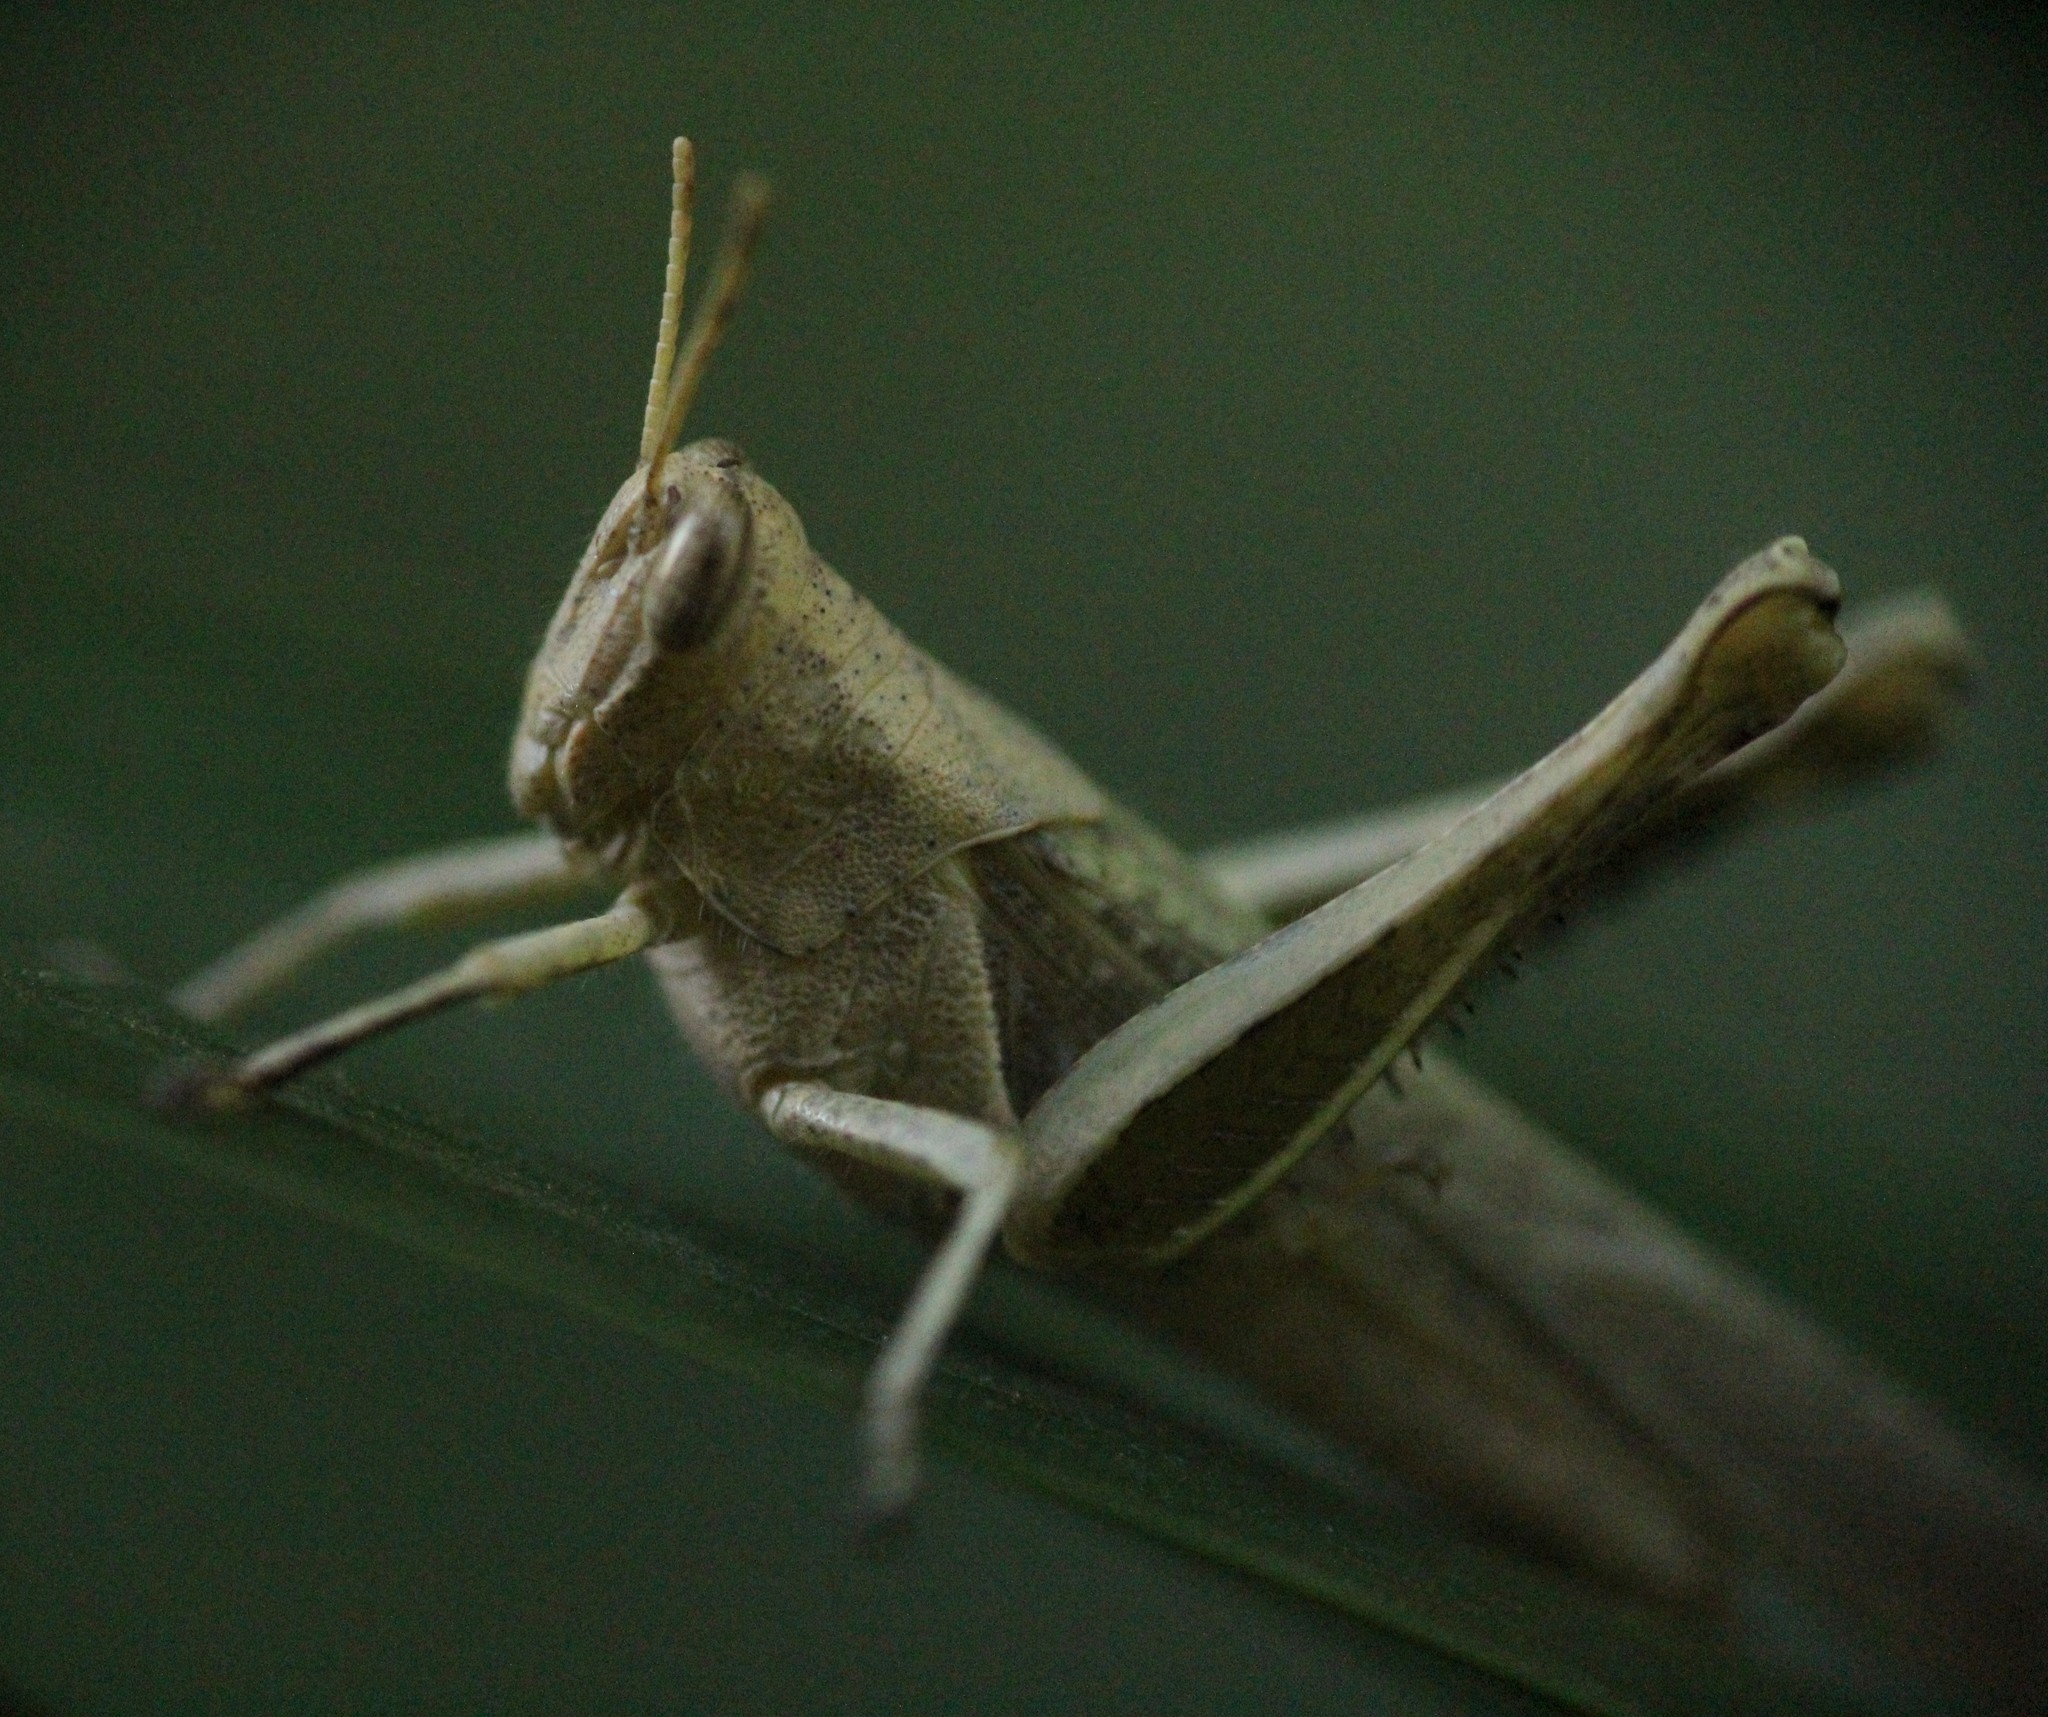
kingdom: Animalia
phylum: Arthropoda
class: Insecta
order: Orthoptera
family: Acrididae
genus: Abracris
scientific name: Abracris flavolineata
